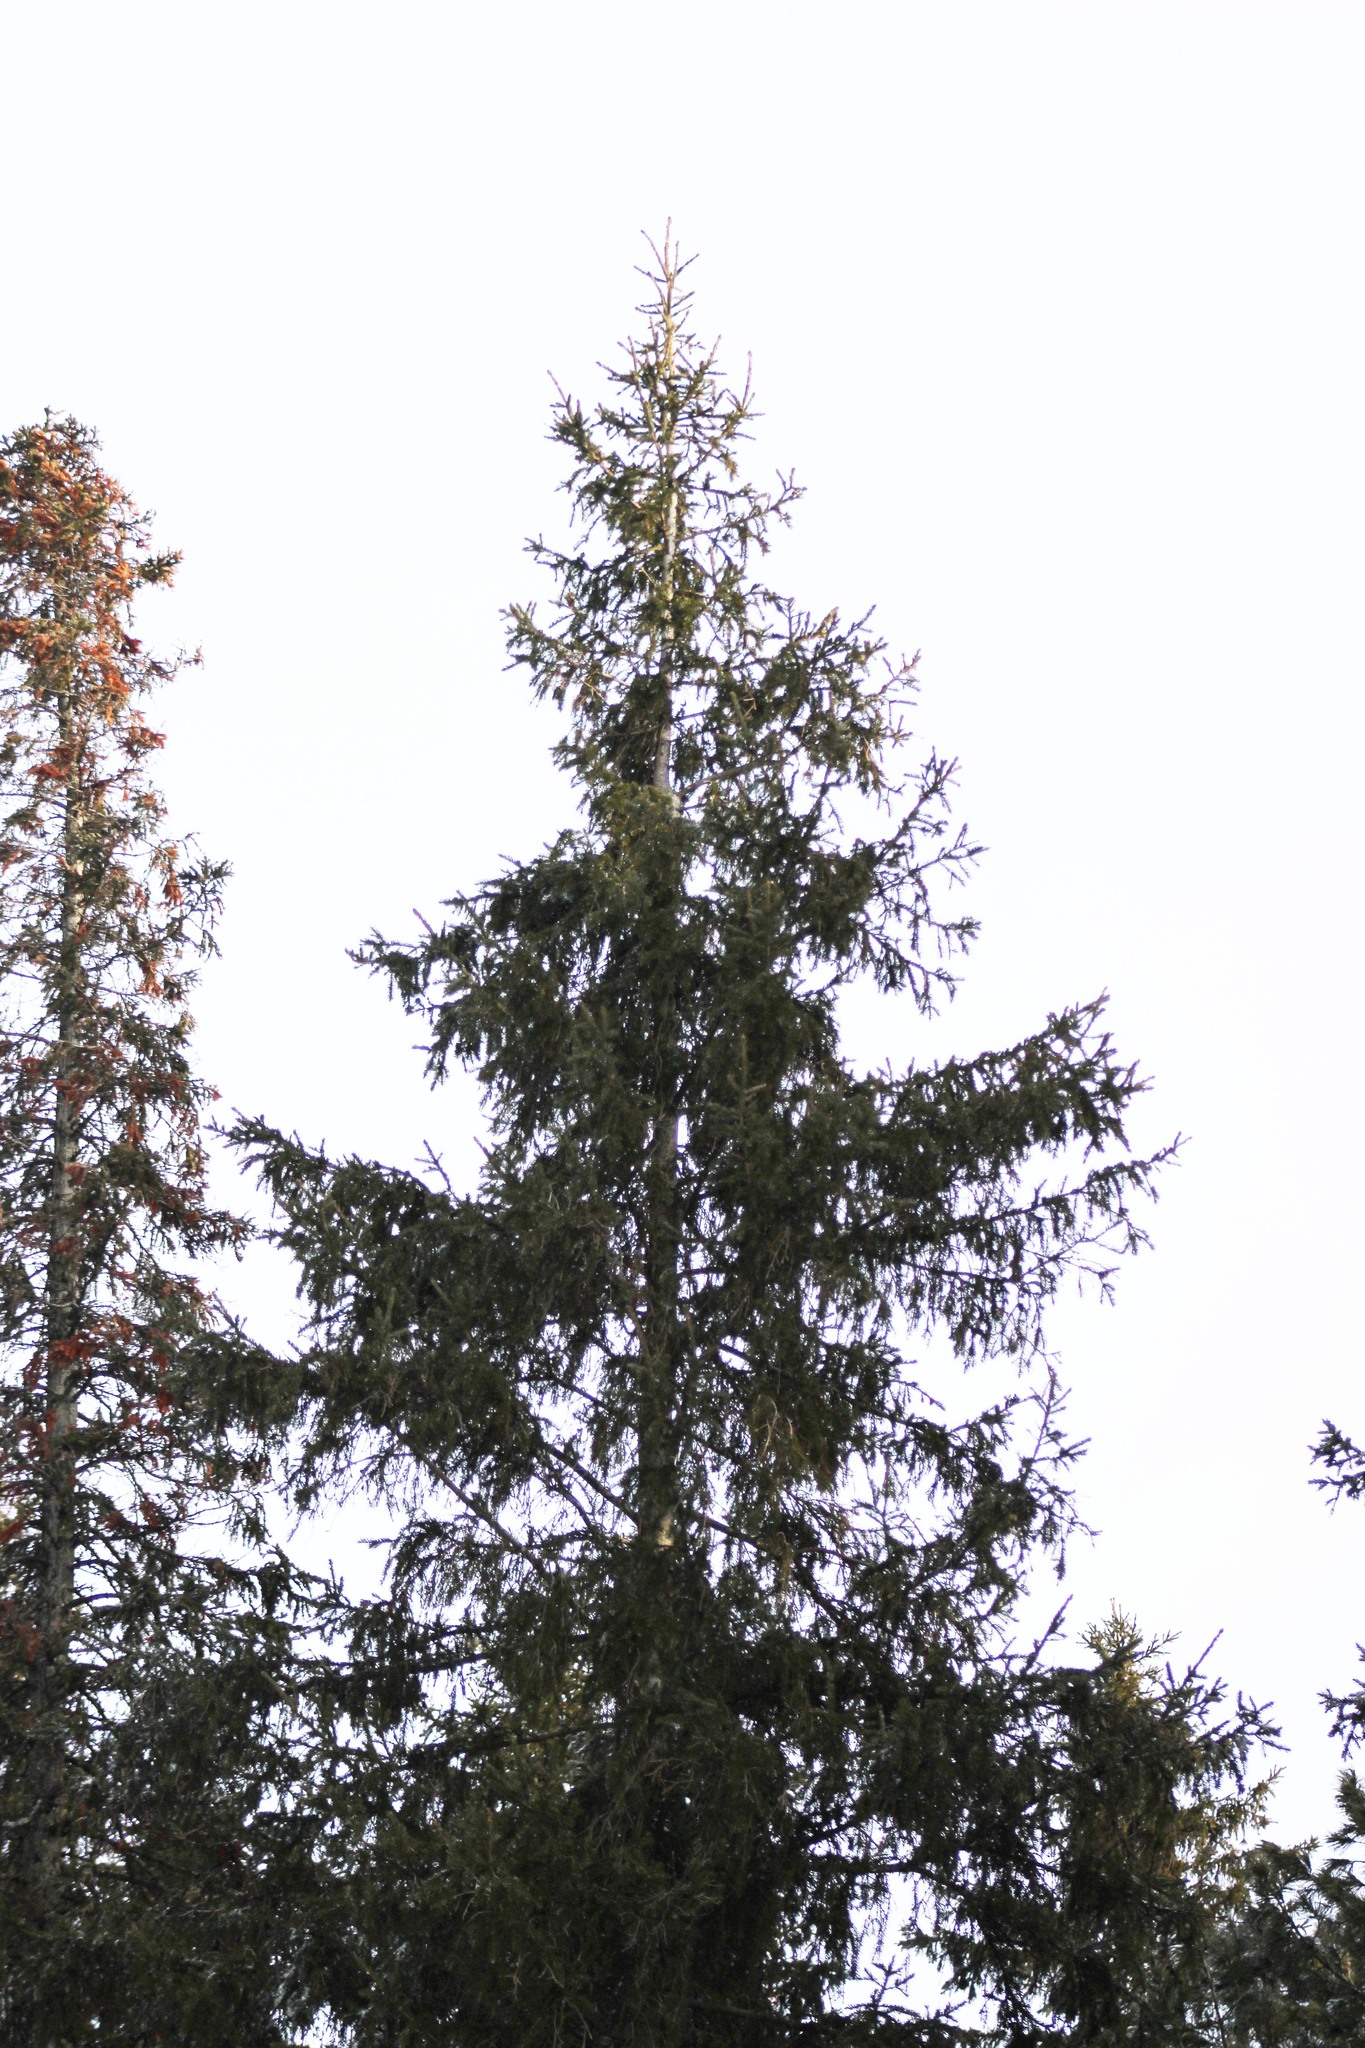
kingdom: Plantae
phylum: Tracheophyta
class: Pinopsida
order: Pinales
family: Pinaceae
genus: Picea
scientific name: Picea obovata
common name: Siberian spruce
